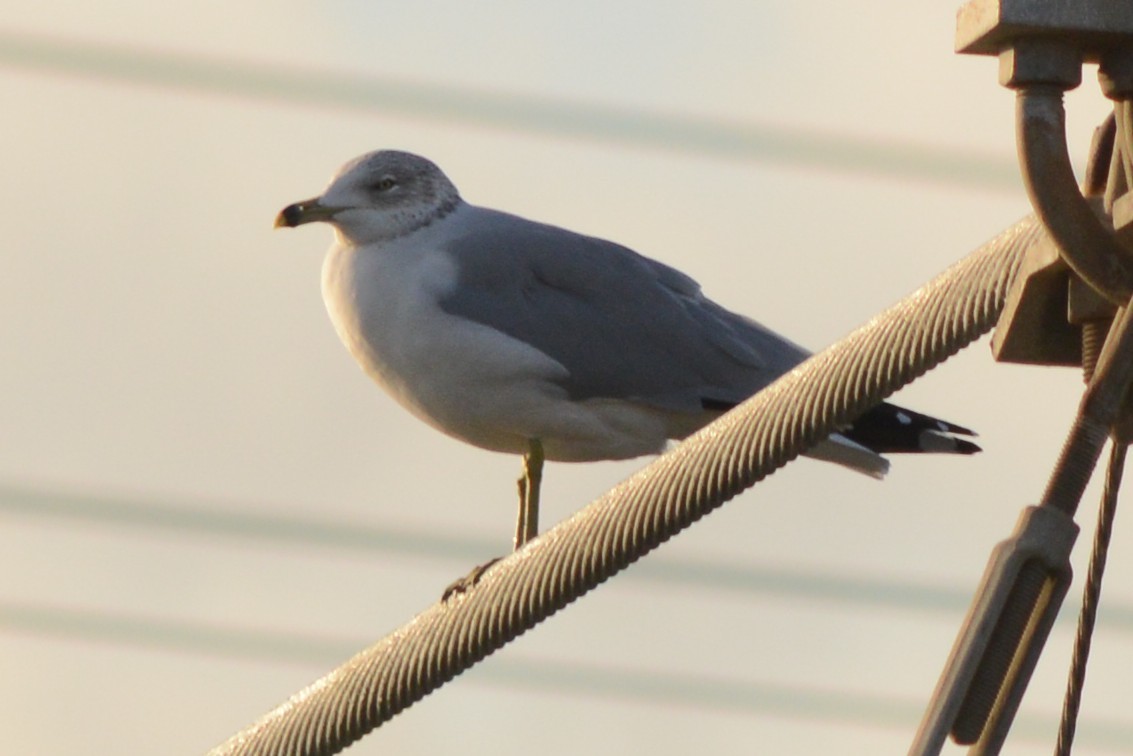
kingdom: Animalia
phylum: Chordata
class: Aves
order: Charadriiformes
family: Laridae
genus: Larus
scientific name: Larus delawarensis
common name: Ring-billed gull
